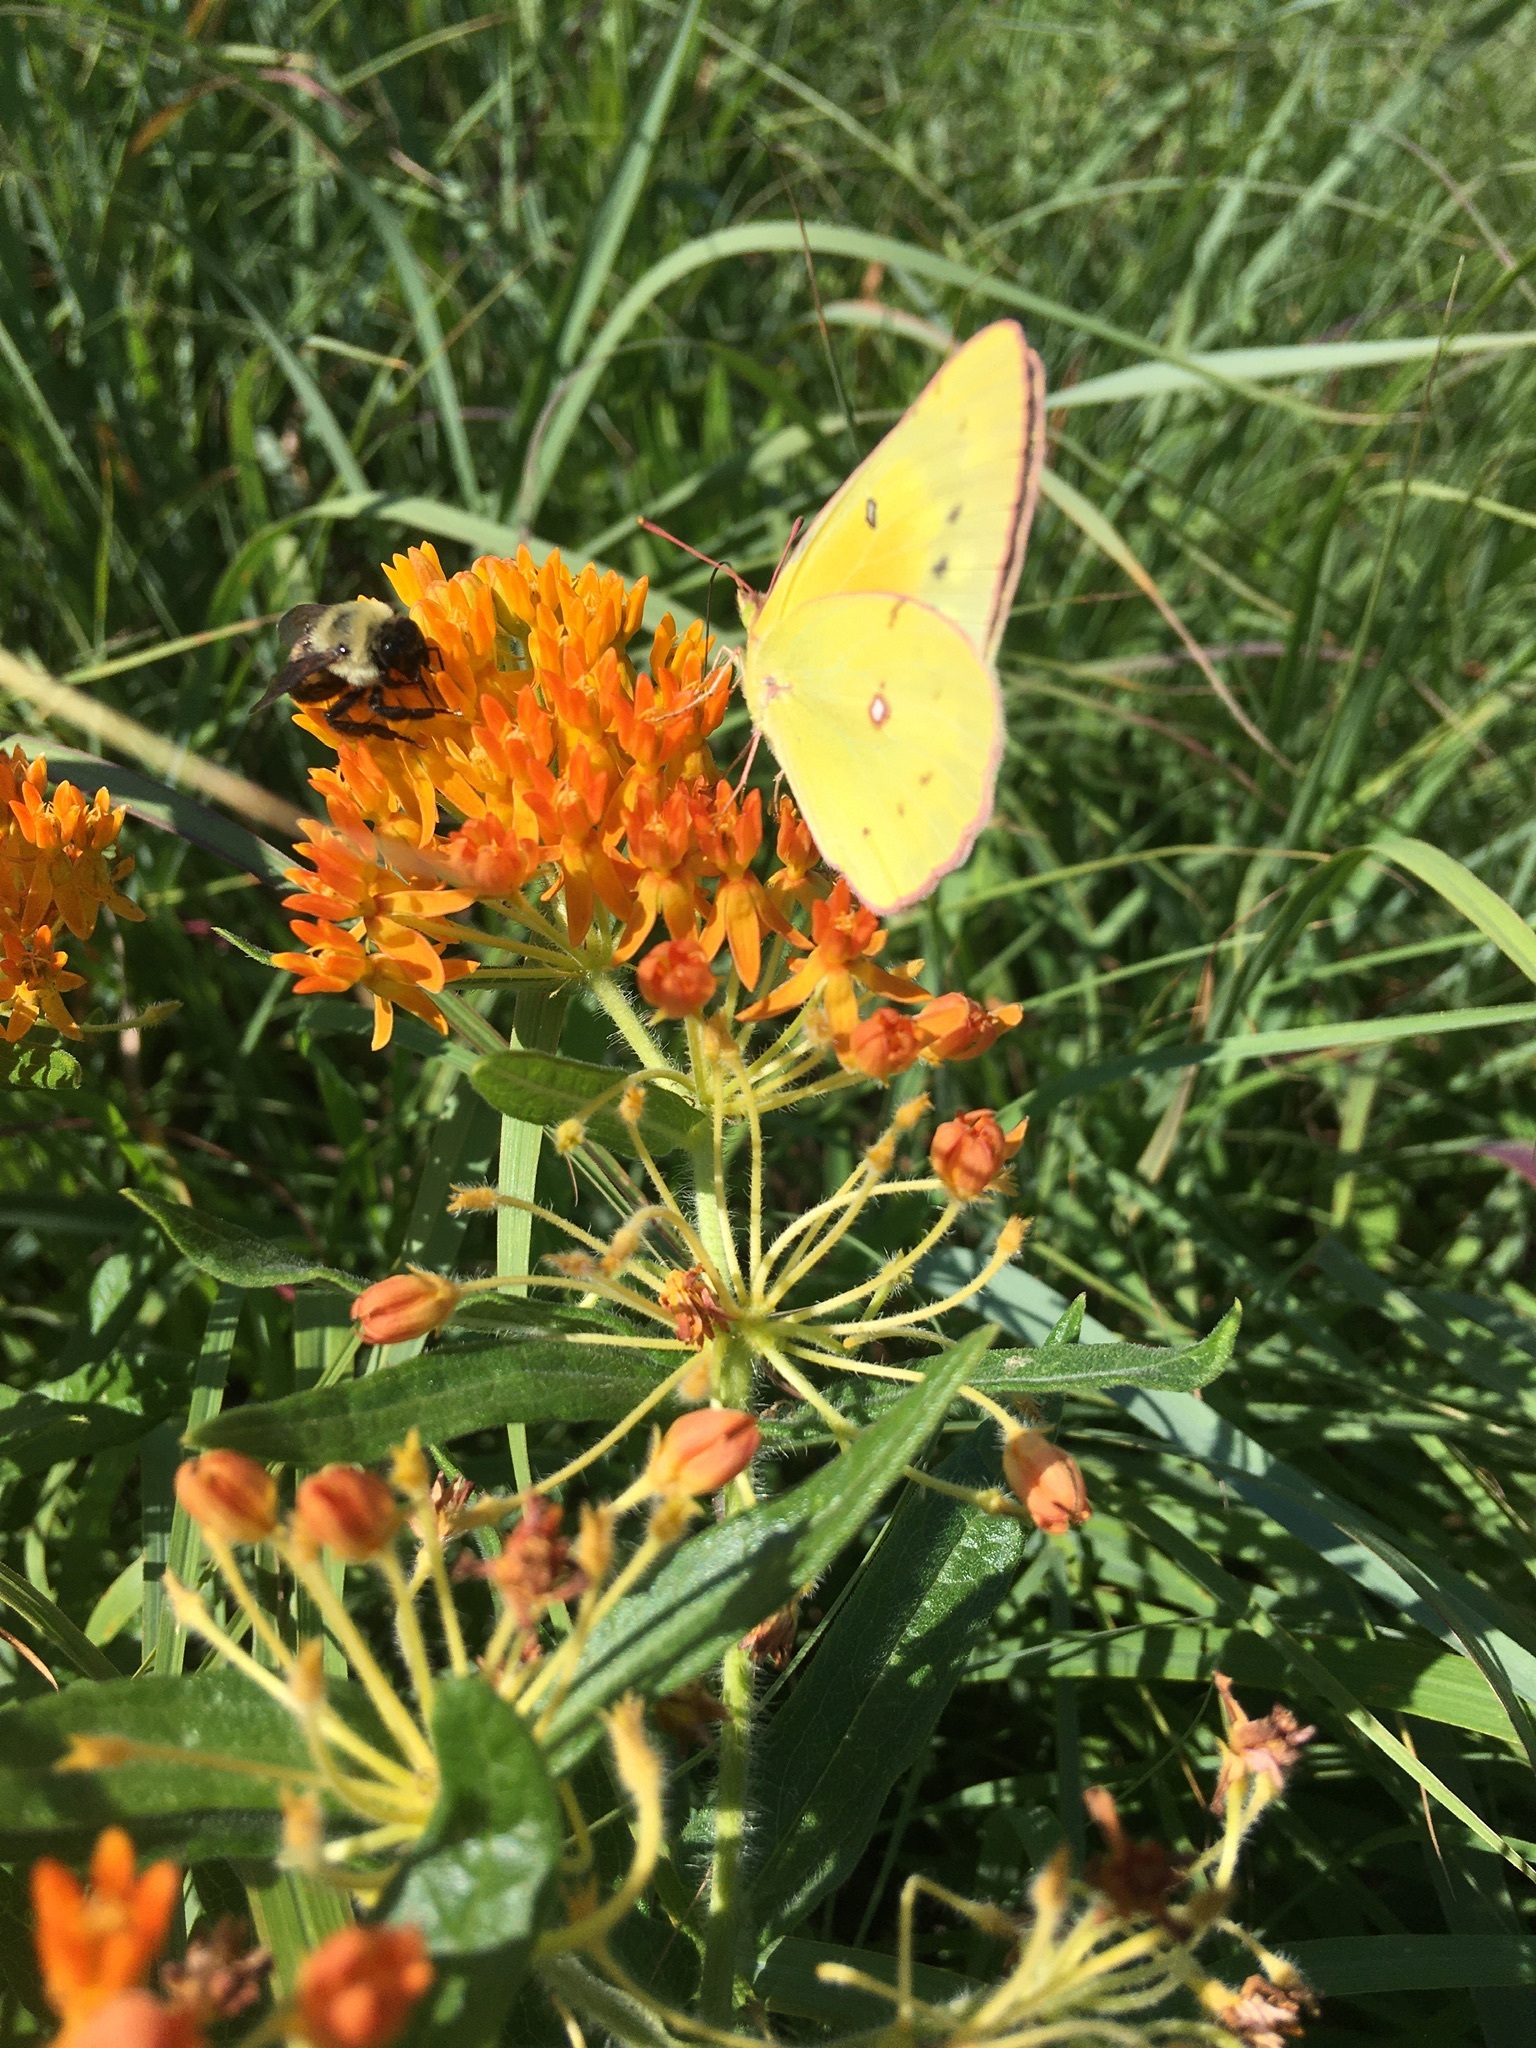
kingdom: Animalia
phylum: Arthropoda
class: Insecta
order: Lepidoptera
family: Pieridae
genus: Colias
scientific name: Colias eurytheme
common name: Alfalfa butterfly
